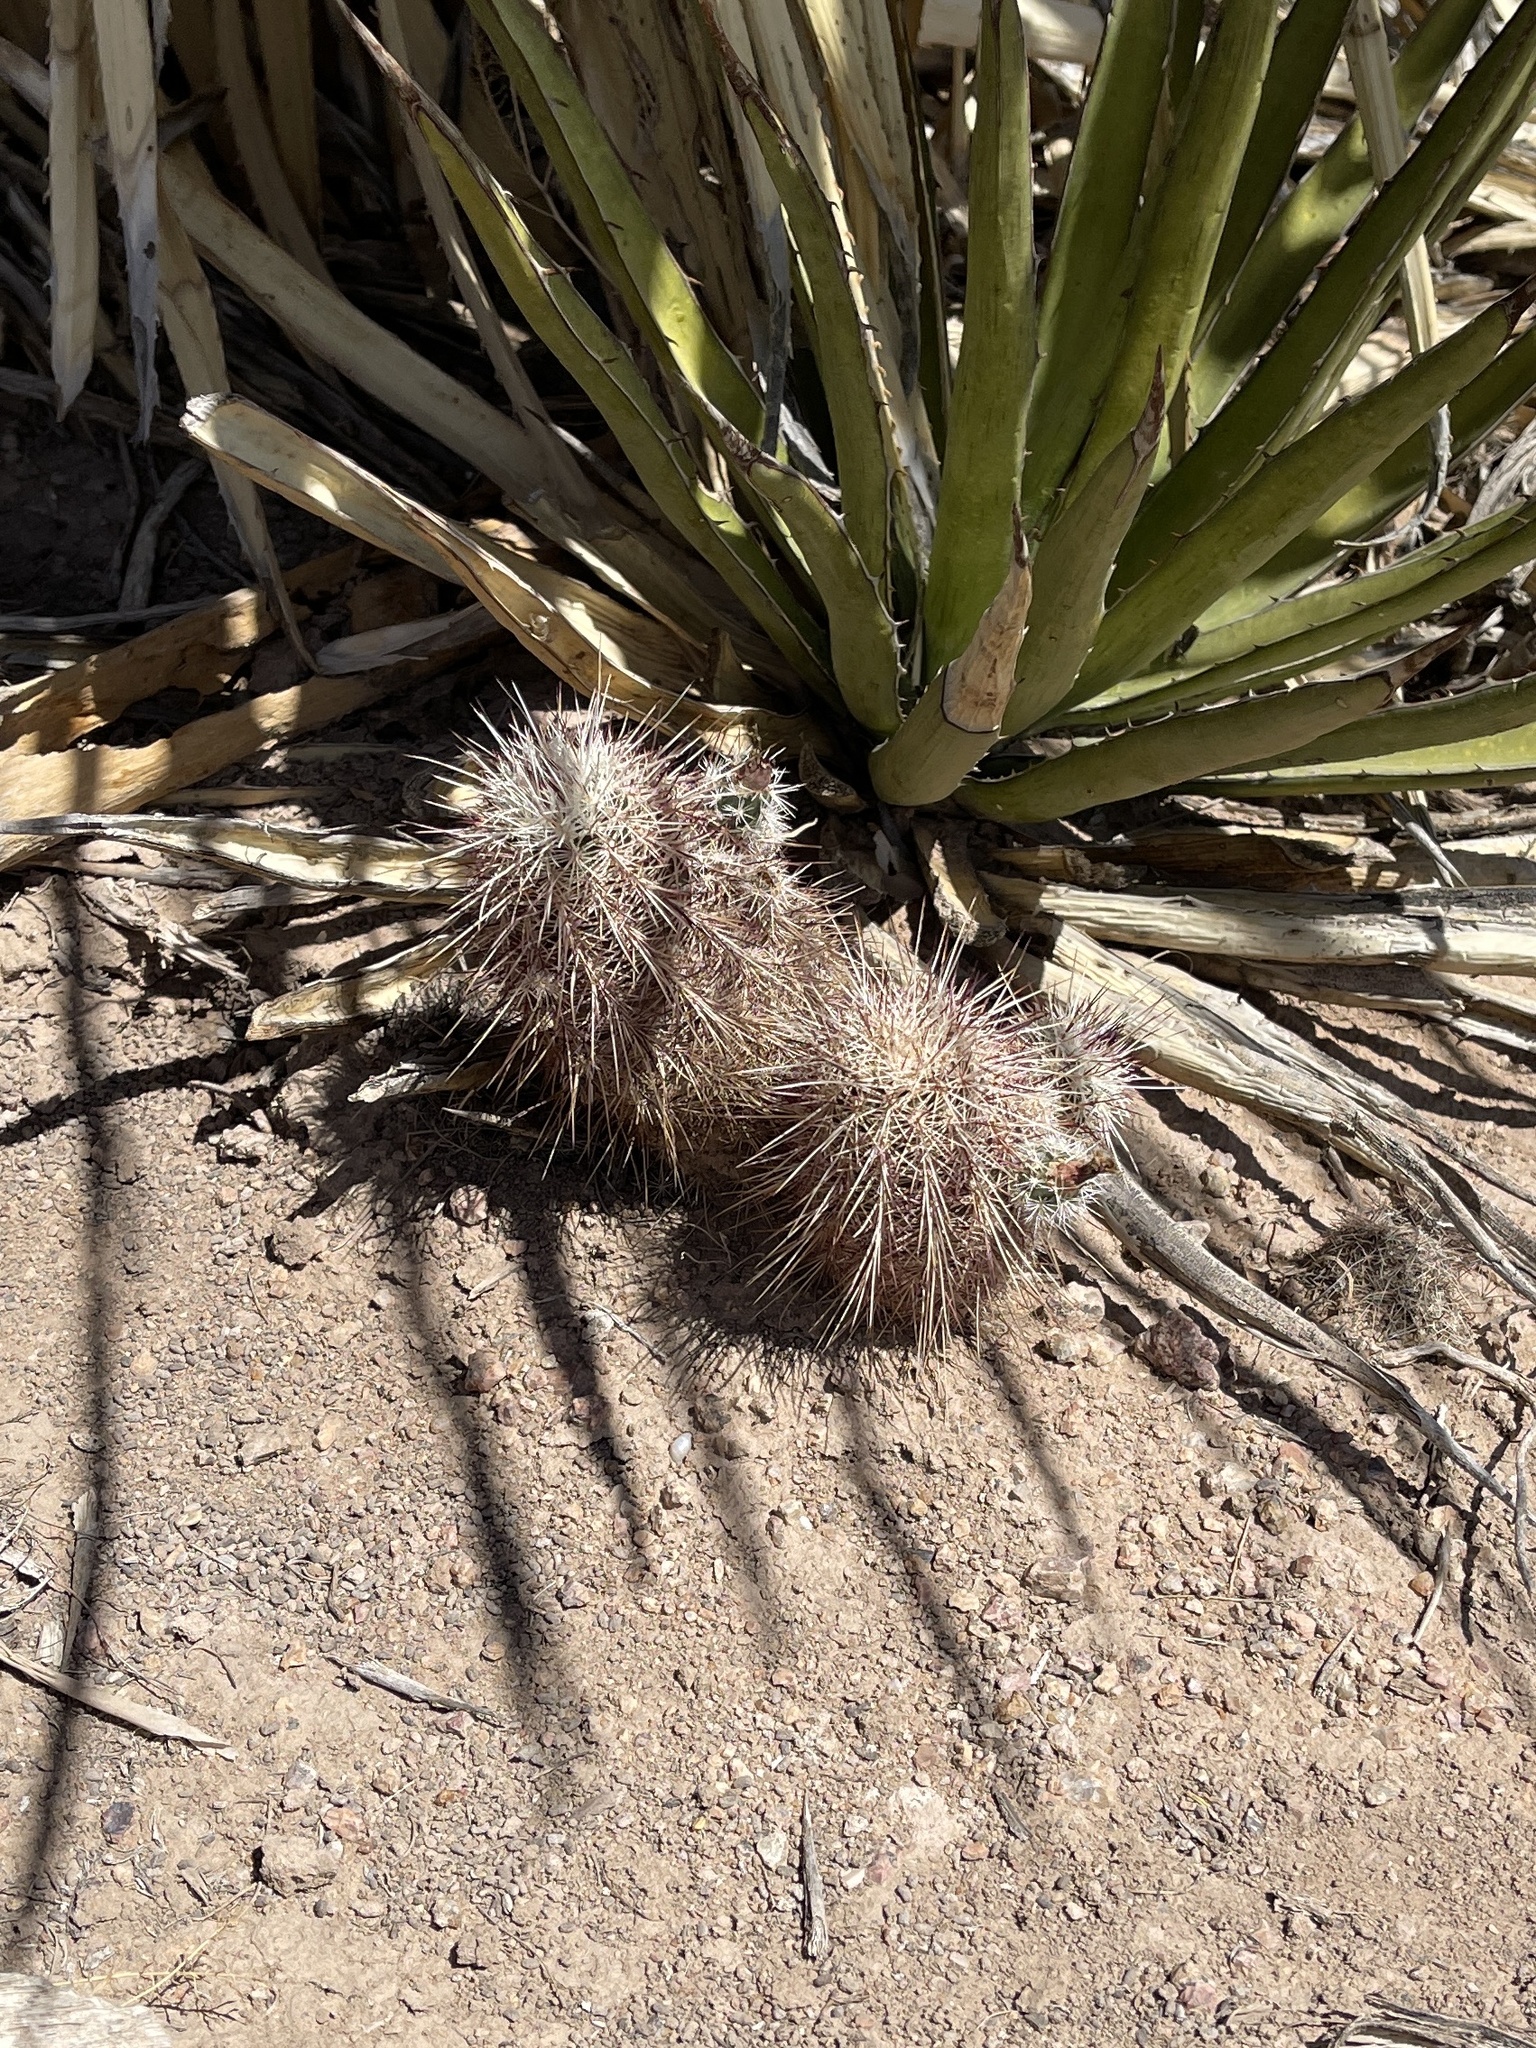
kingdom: Plantae
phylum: Tracheophyta
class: Magnoliopsida
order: Caryophyllales
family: Cactaceae
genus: Echinocereus
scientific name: Echinocereus viridiflorus
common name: Nylon hedgehog cactus
